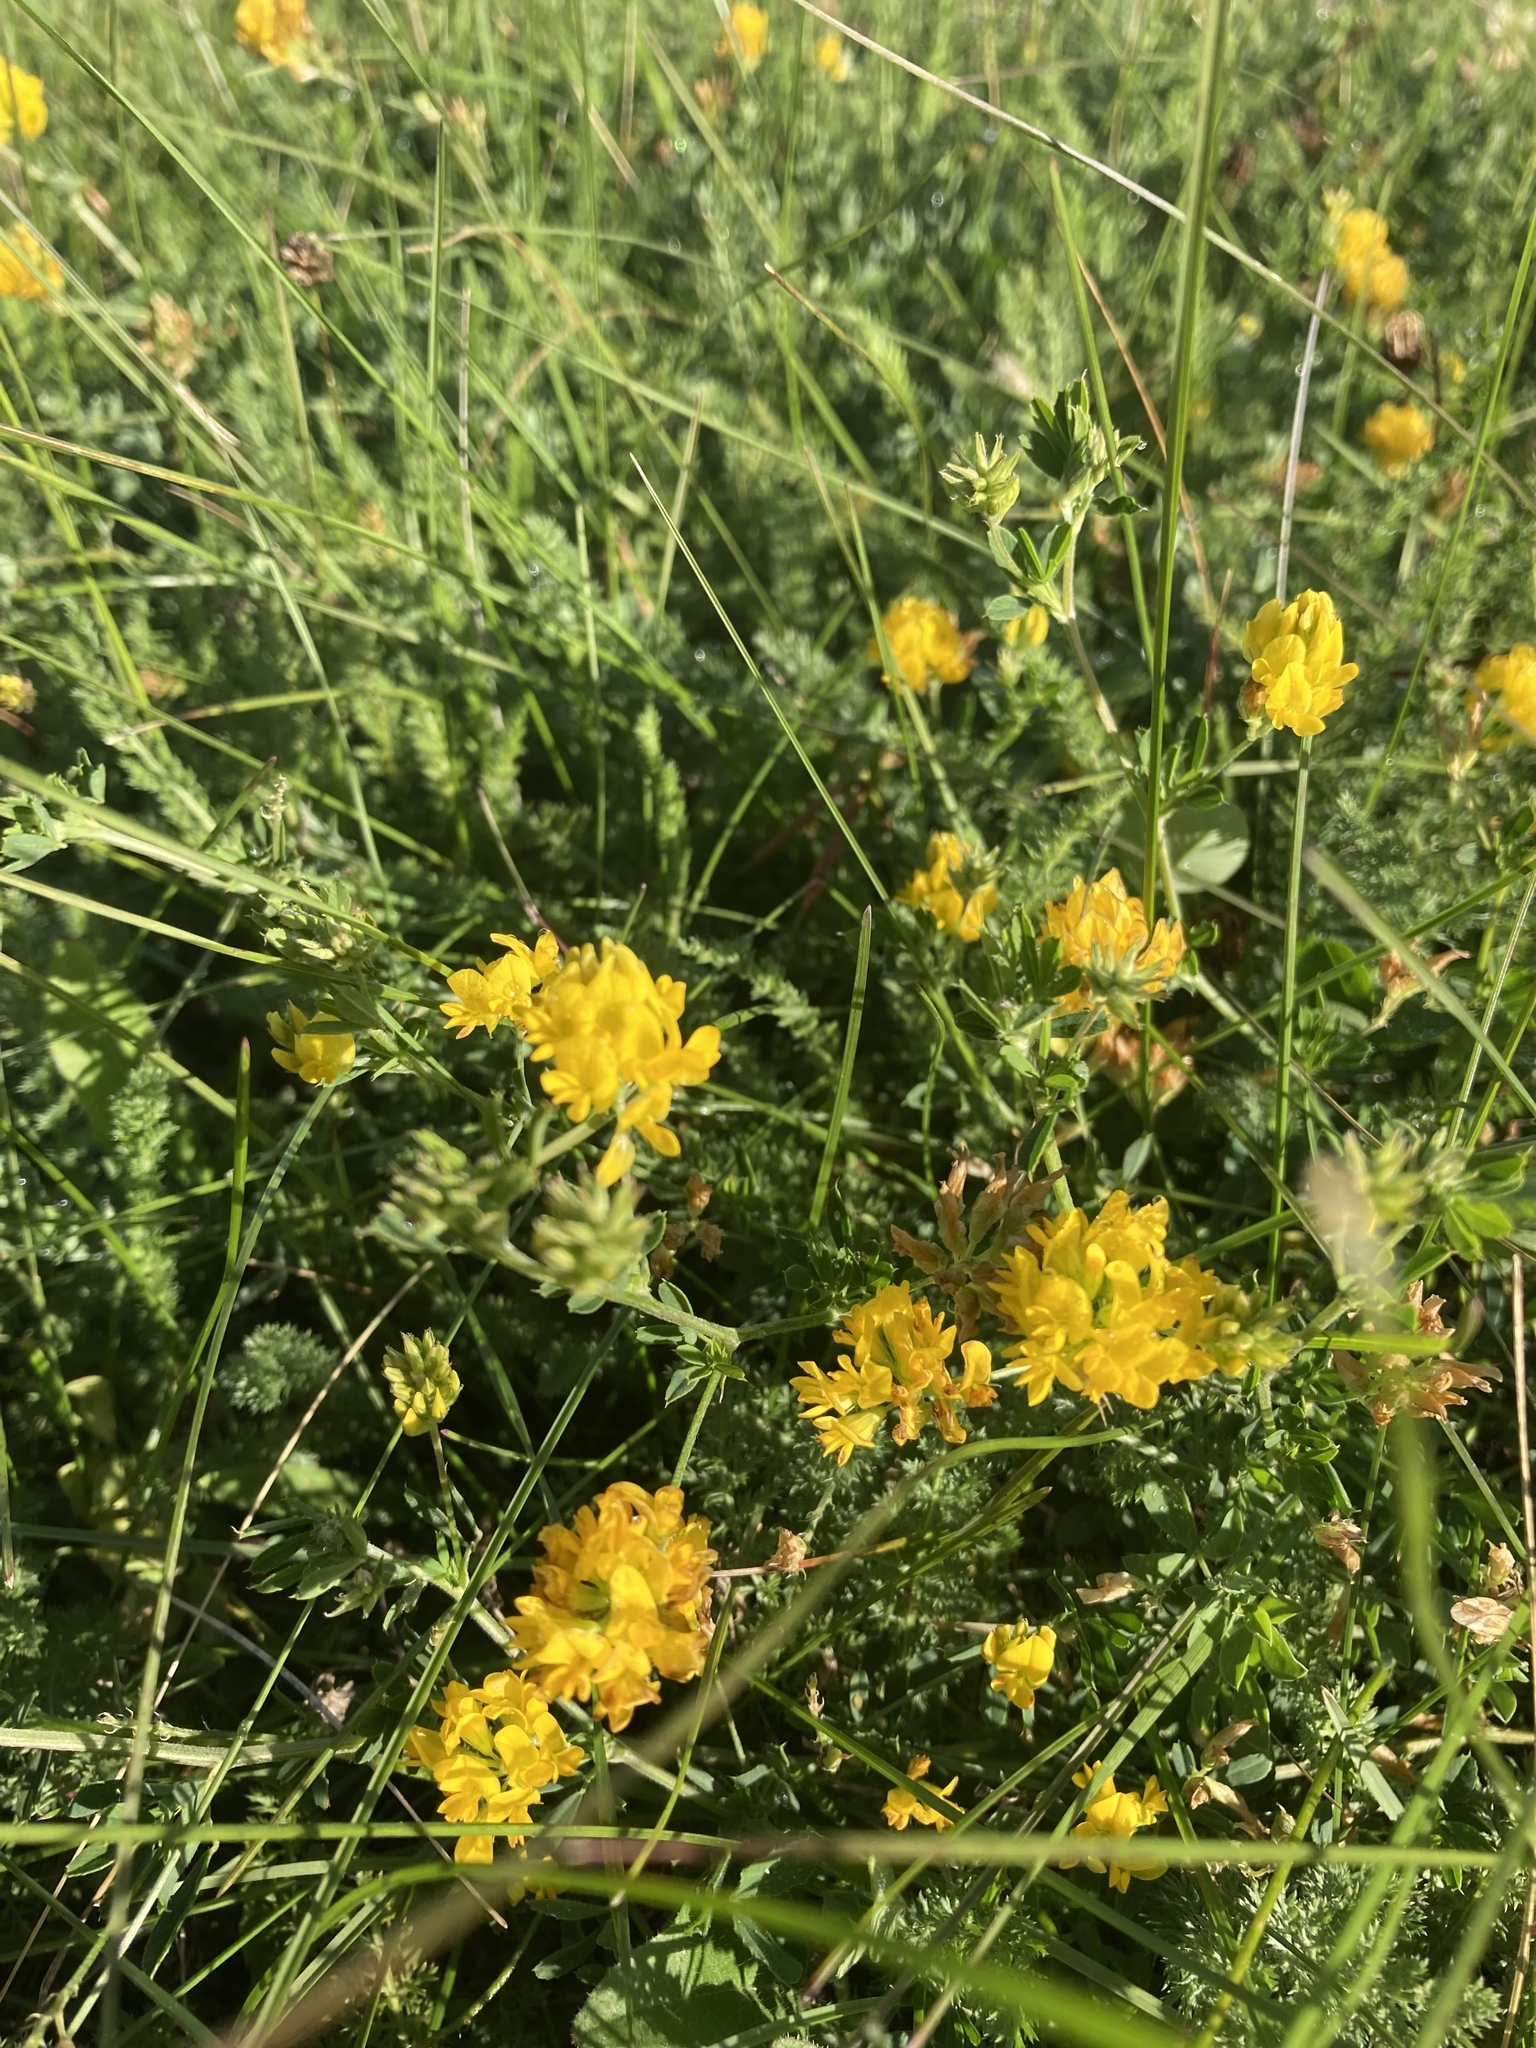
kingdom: Plantae
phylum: Tracheophyta
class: Magnoliopsida
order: Fabales
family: Fabaceae
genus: Medicago
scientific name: Medicago falcata
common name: Sickle medick
